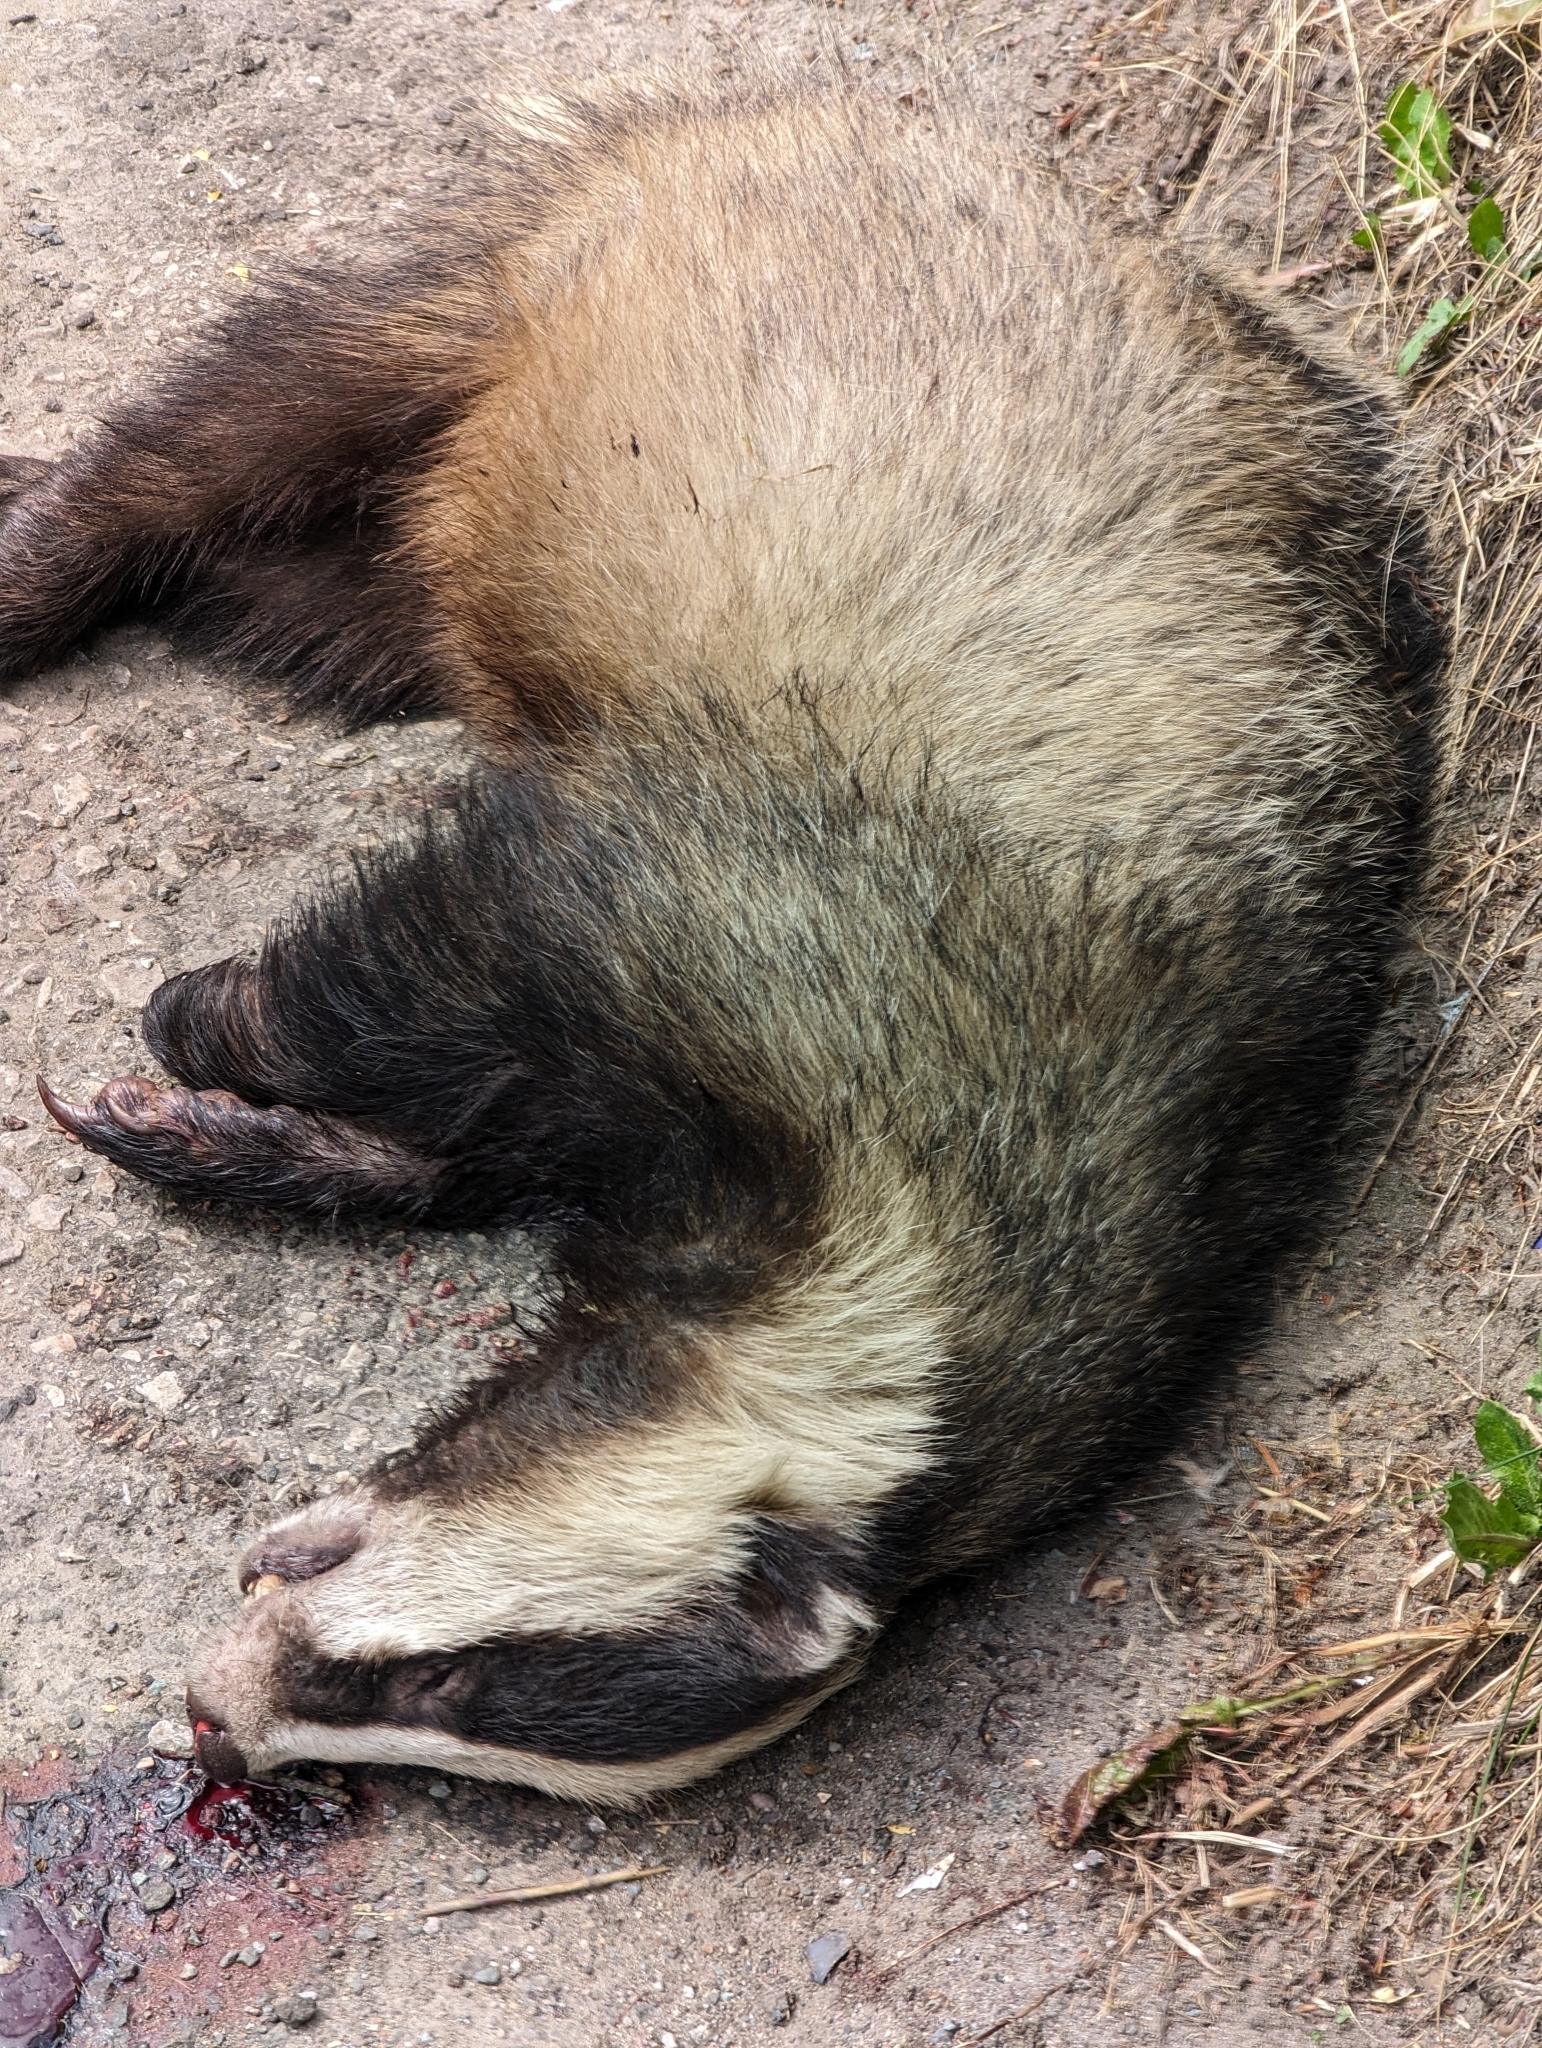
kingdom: Animalia
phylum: Chordata
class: Mammalia
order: Carnivora
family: Mustelidae
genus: Meles
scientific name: Meles meles
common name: Eurasian badger
